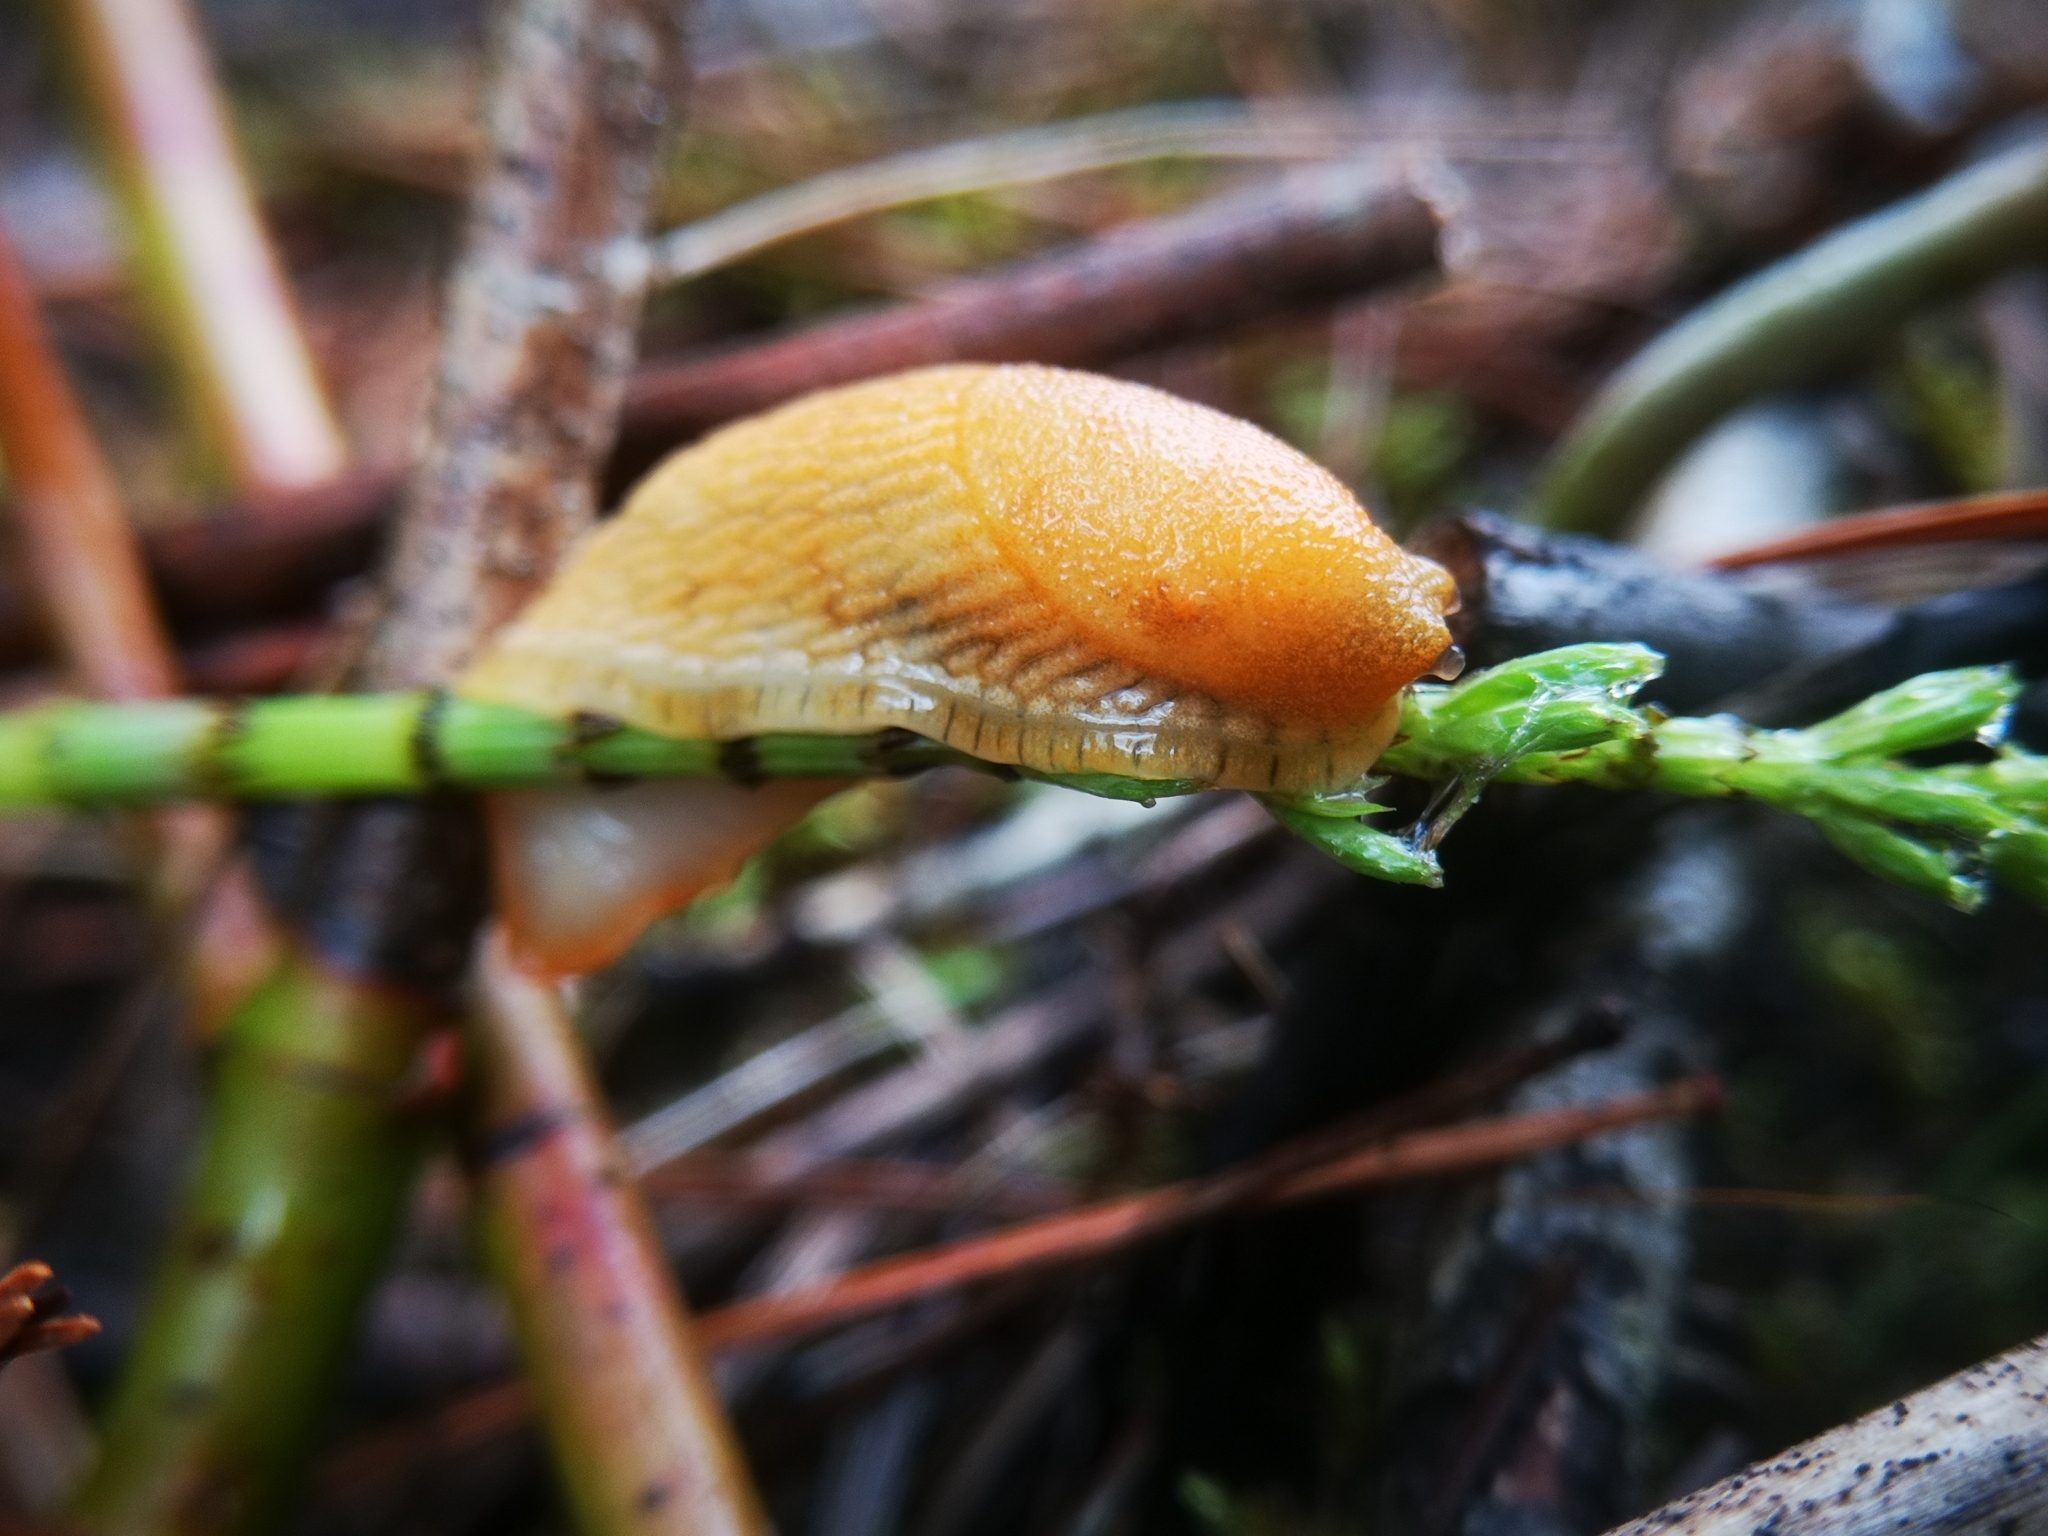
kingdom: Animalia
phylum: Mollusca
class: Gastropoda
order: Stylommatophora
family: Arionidae
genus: Arion
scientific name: Arion subfuscus
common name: Dusky arion
